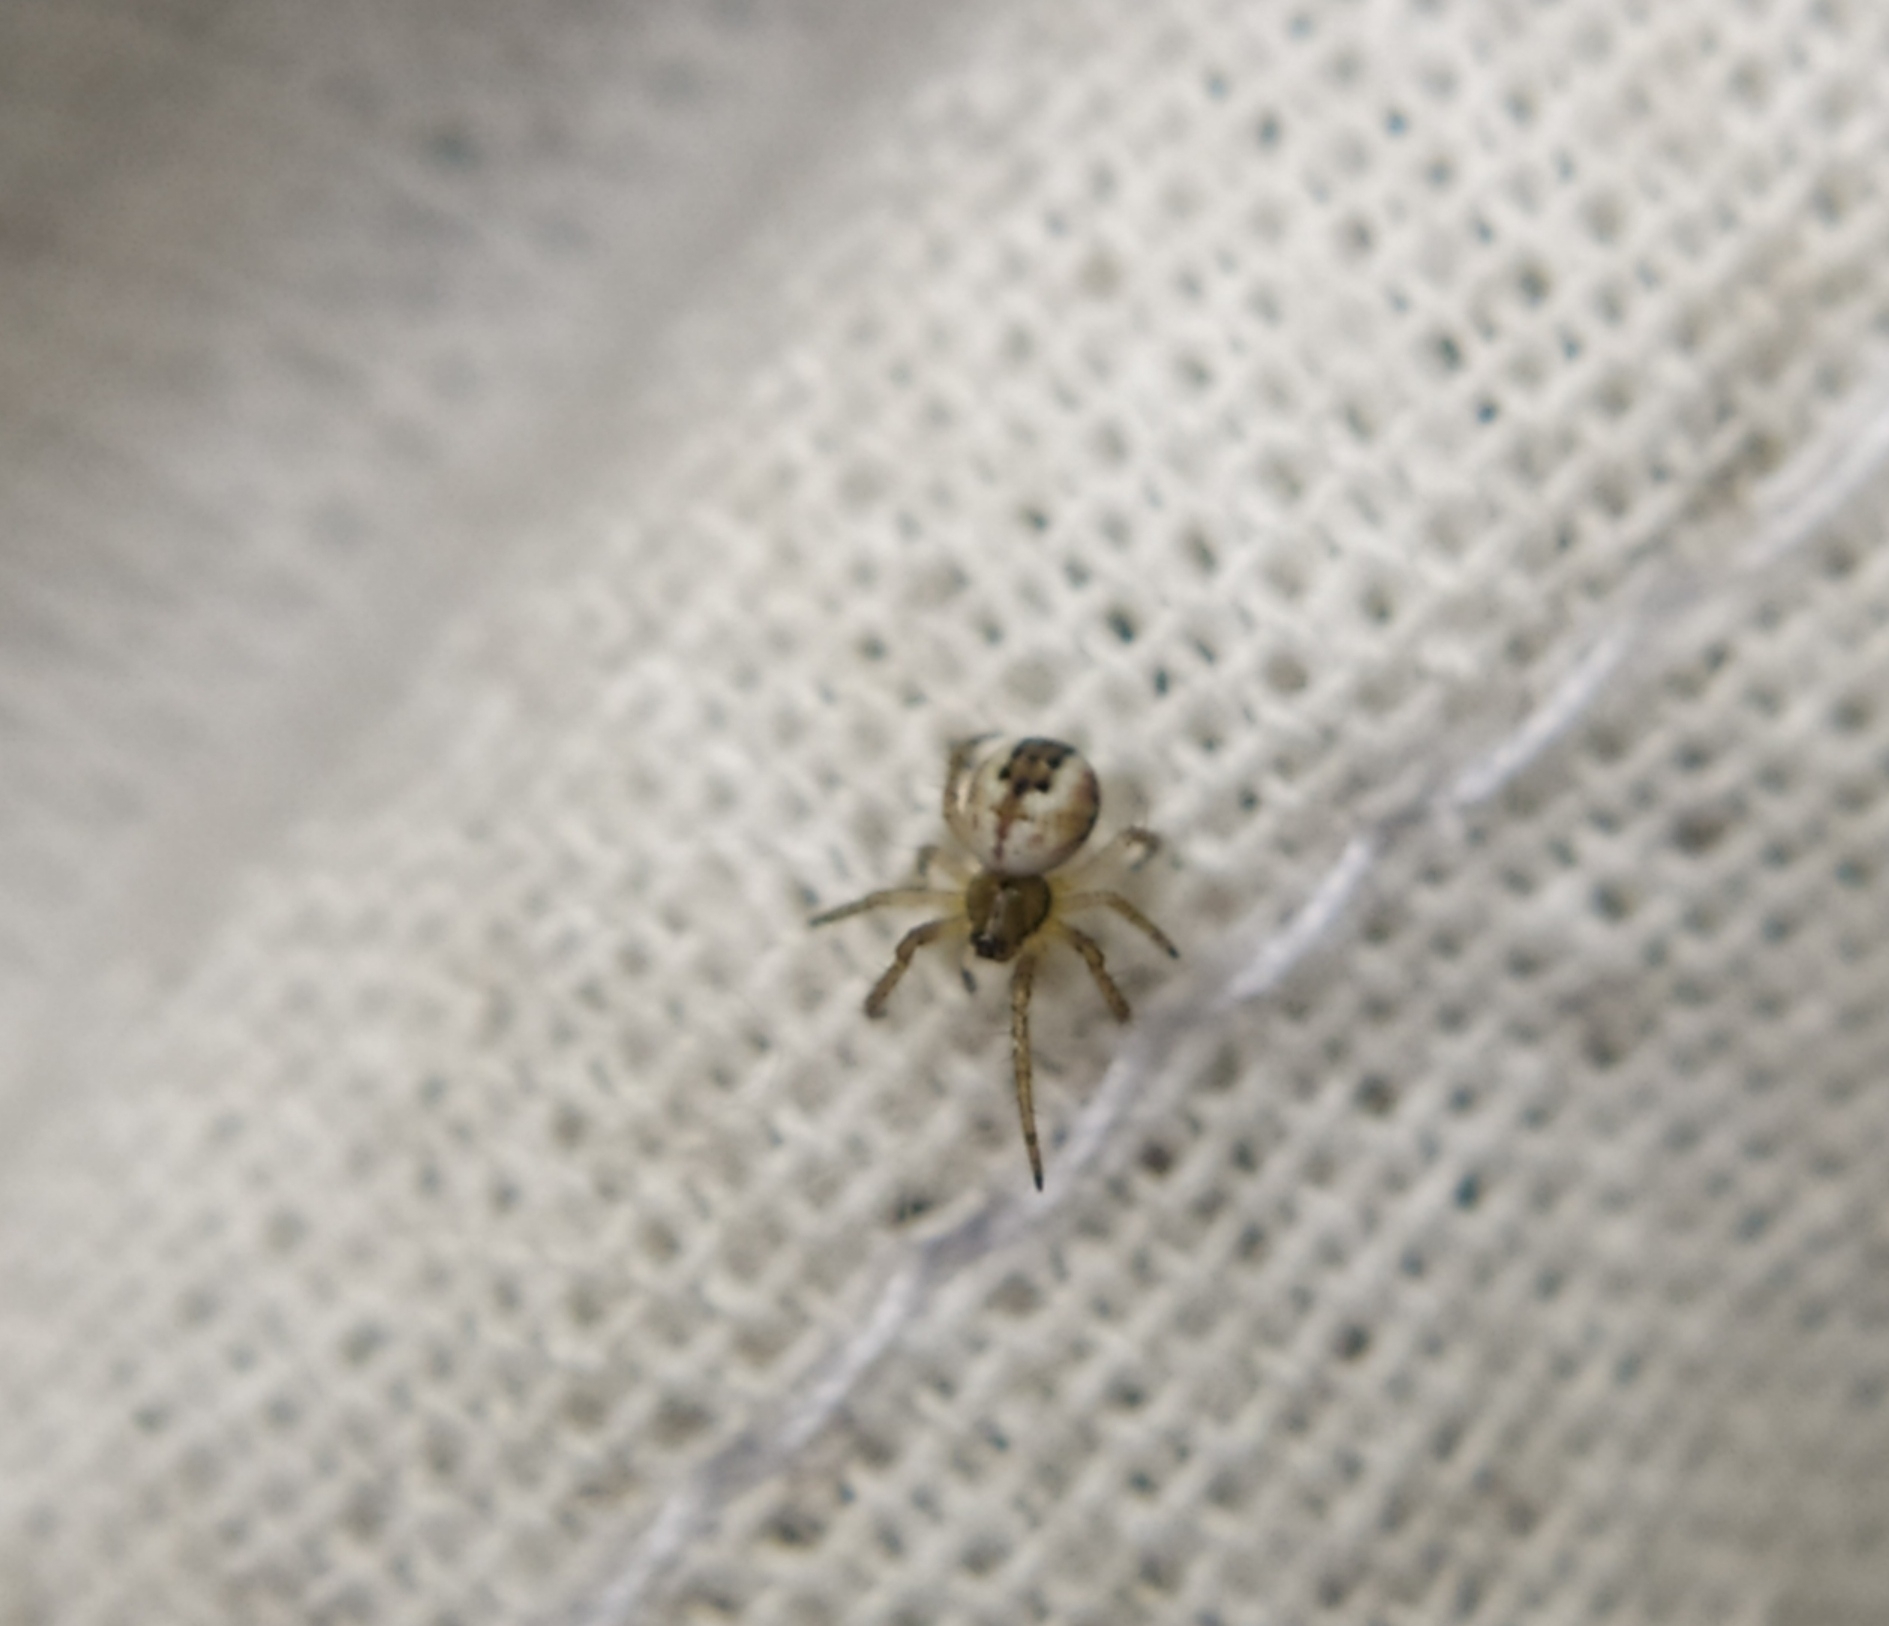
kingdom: Animalia
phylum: Arthropoda
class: Arachnida
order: Araneae
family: Araneidae
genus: Mangora
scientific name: Mangora acalypha
